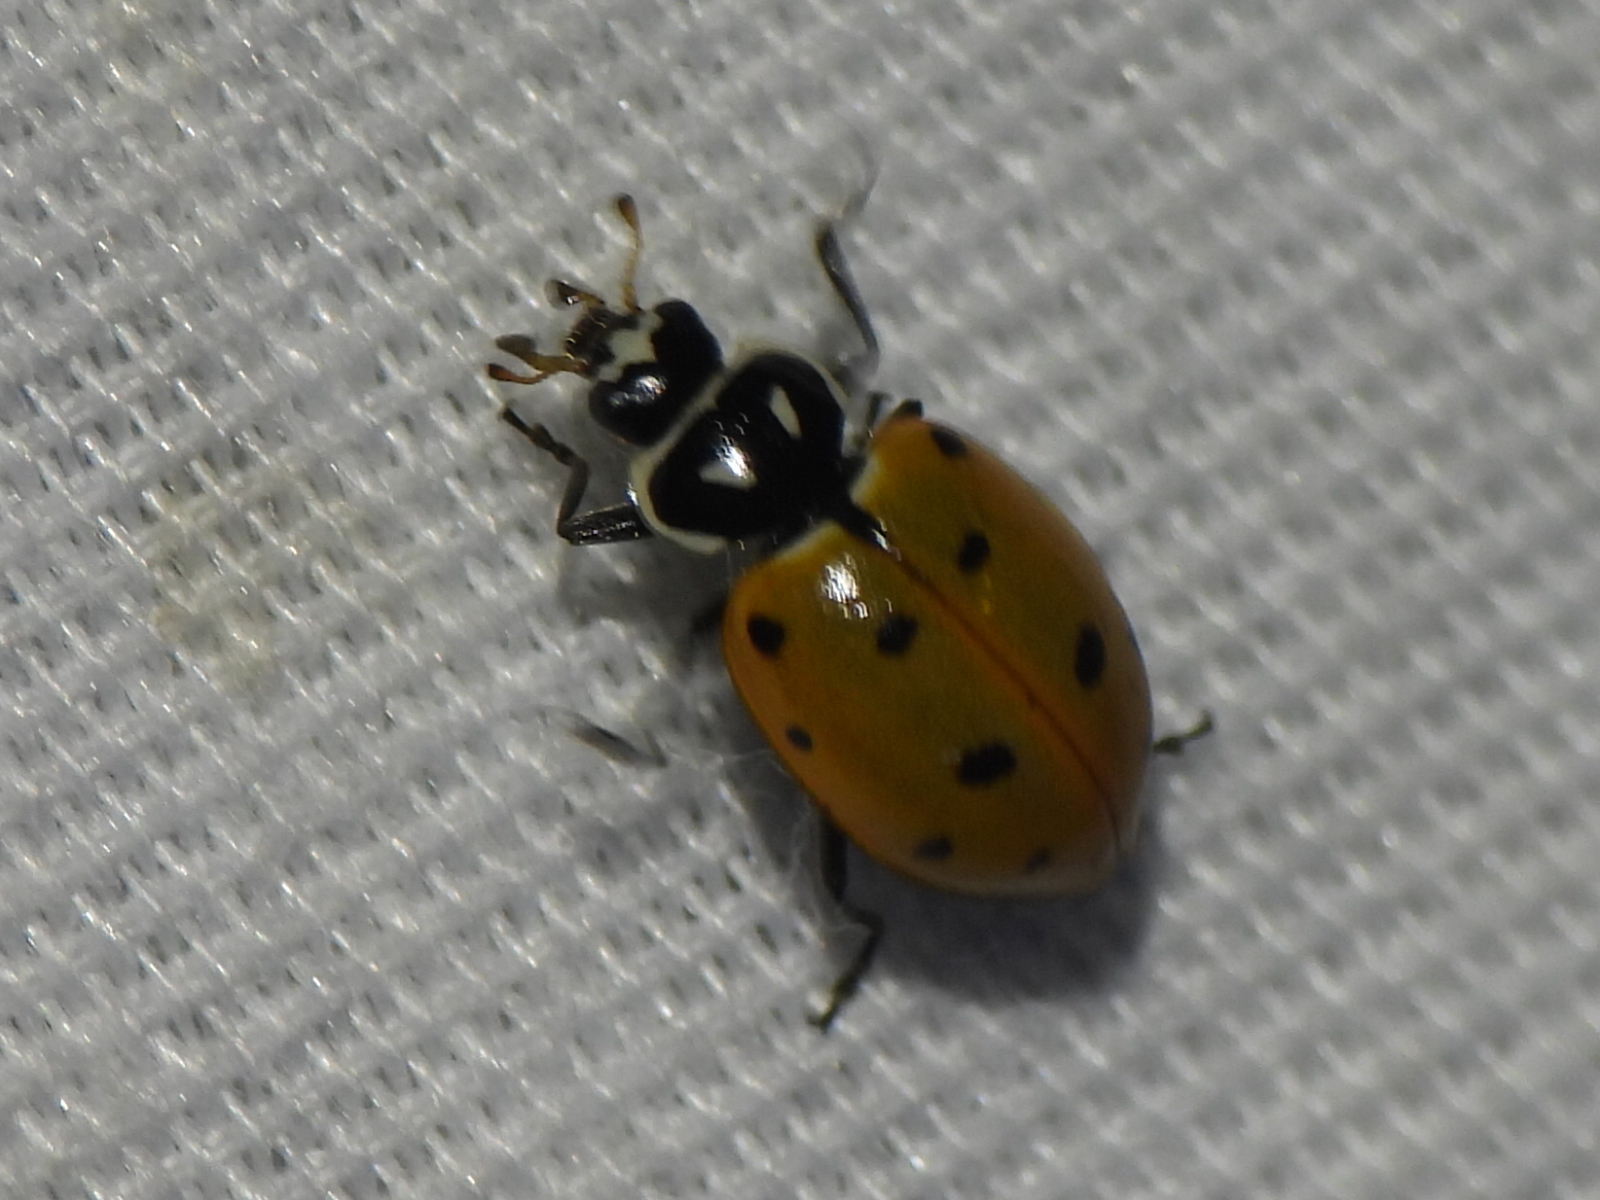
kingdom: Animalia
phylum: Arthropoda
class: Insecta
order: Coleoptera
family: Coccinellidae
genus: Hippodamia
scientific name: Hippodamia convergens
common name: Convergent lady beetle
